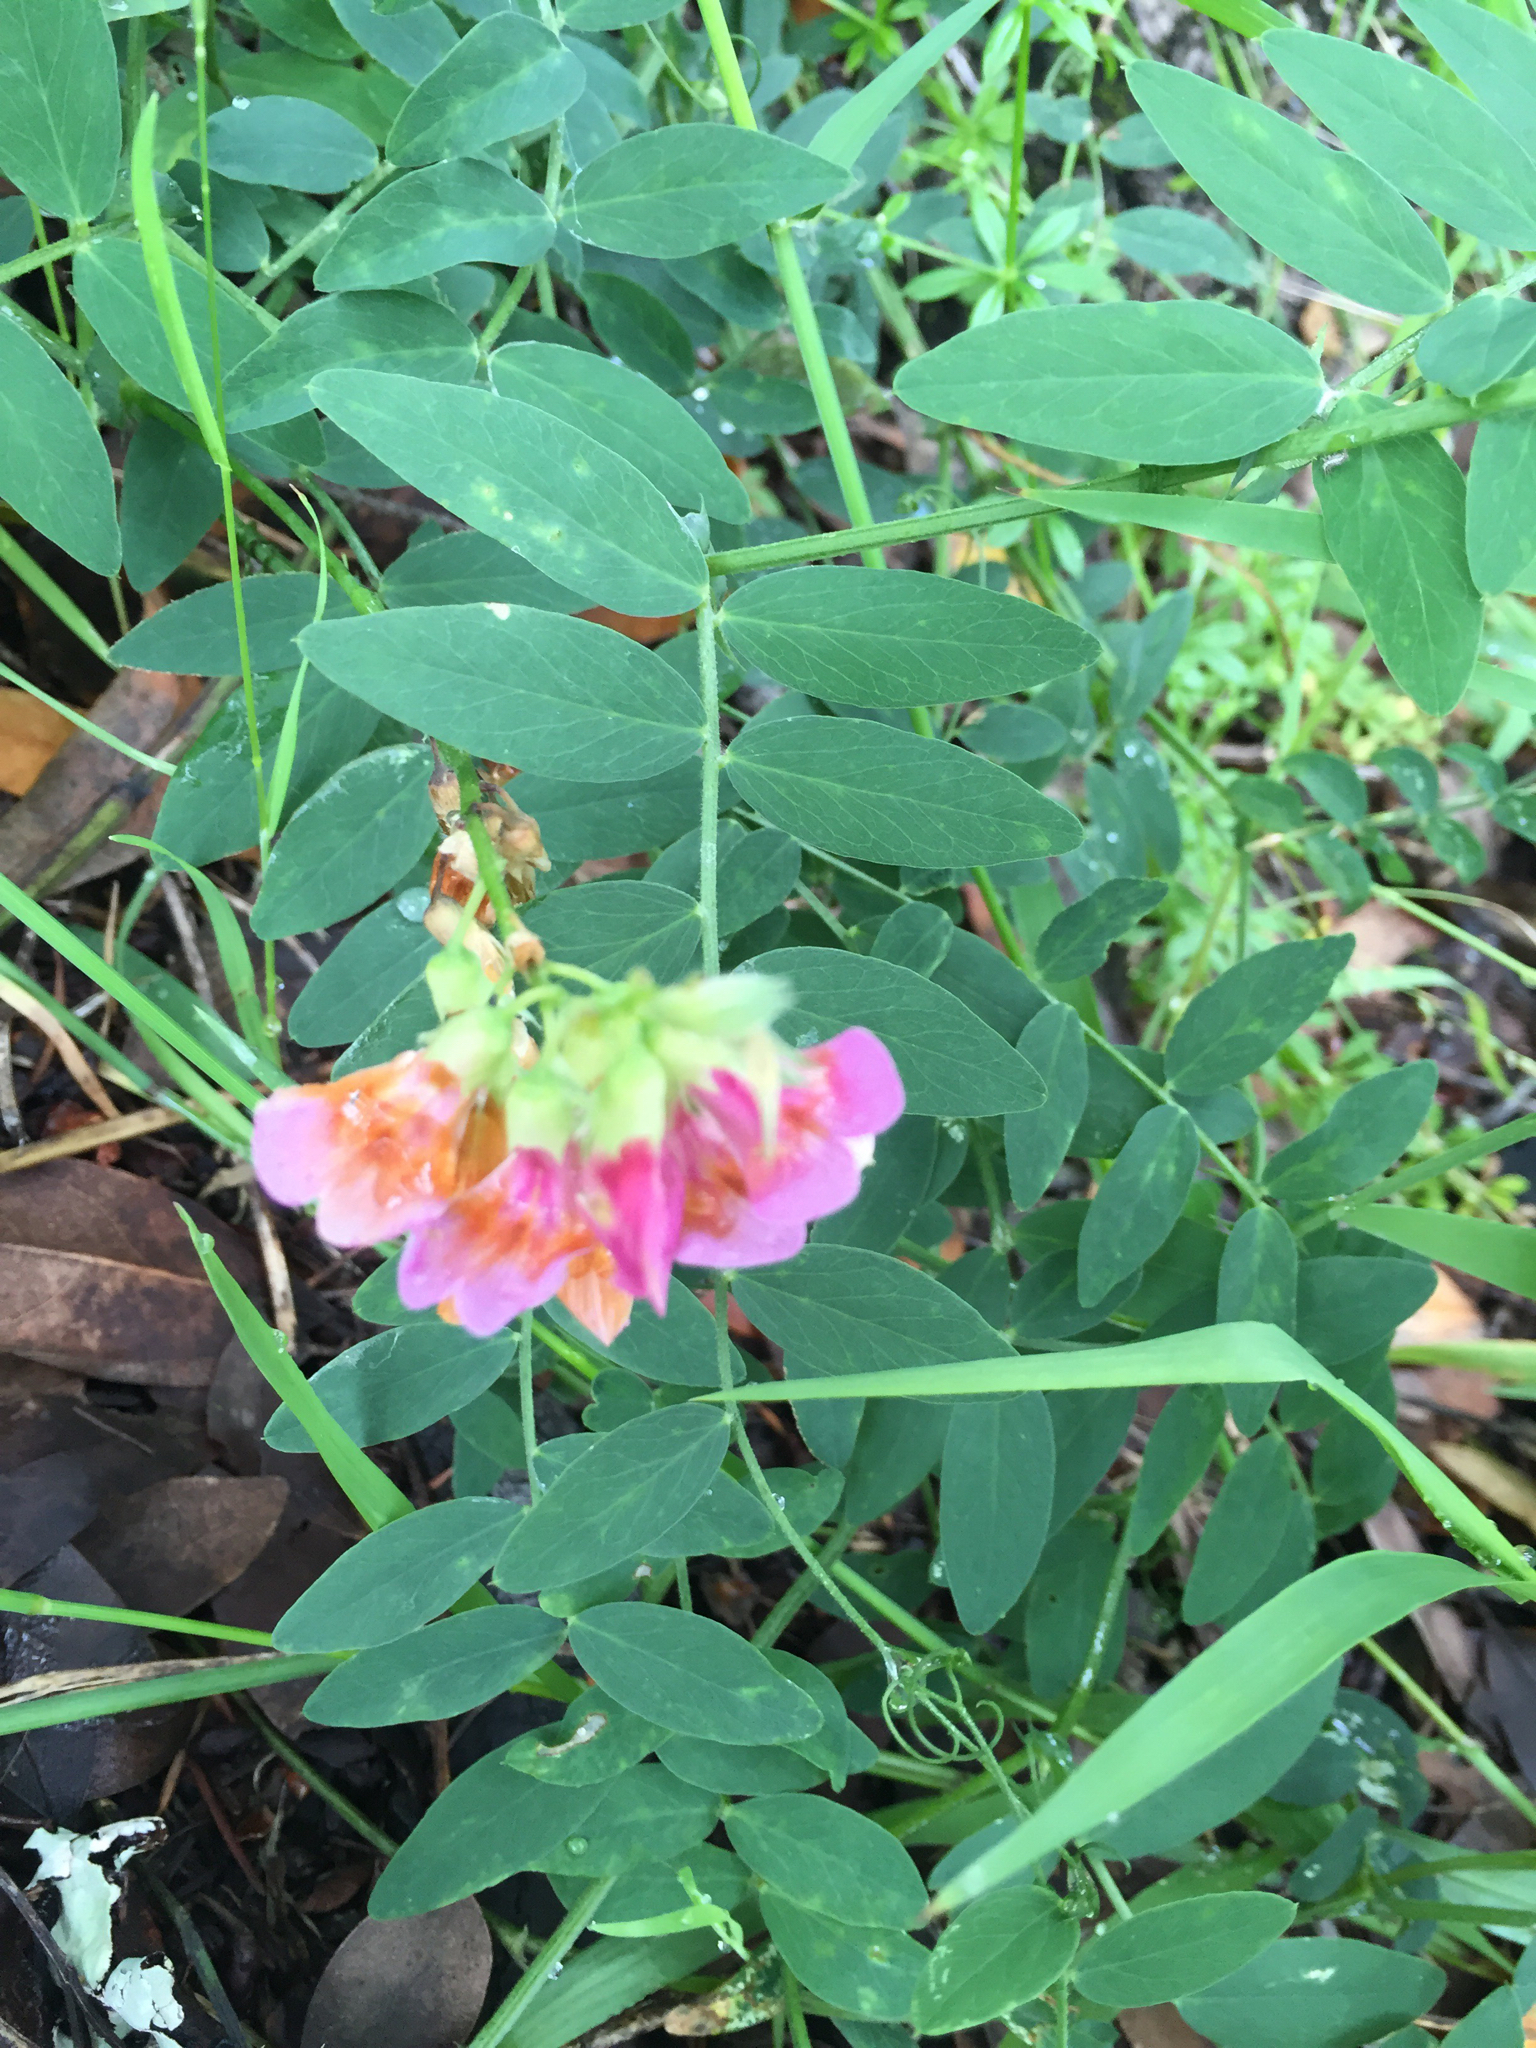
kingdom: Plantae
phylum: Tracheophyta
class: Magnoliopsida
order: Fabales
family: Fabaceae
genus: Lathyrus
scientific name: Lathyrus vestitus
